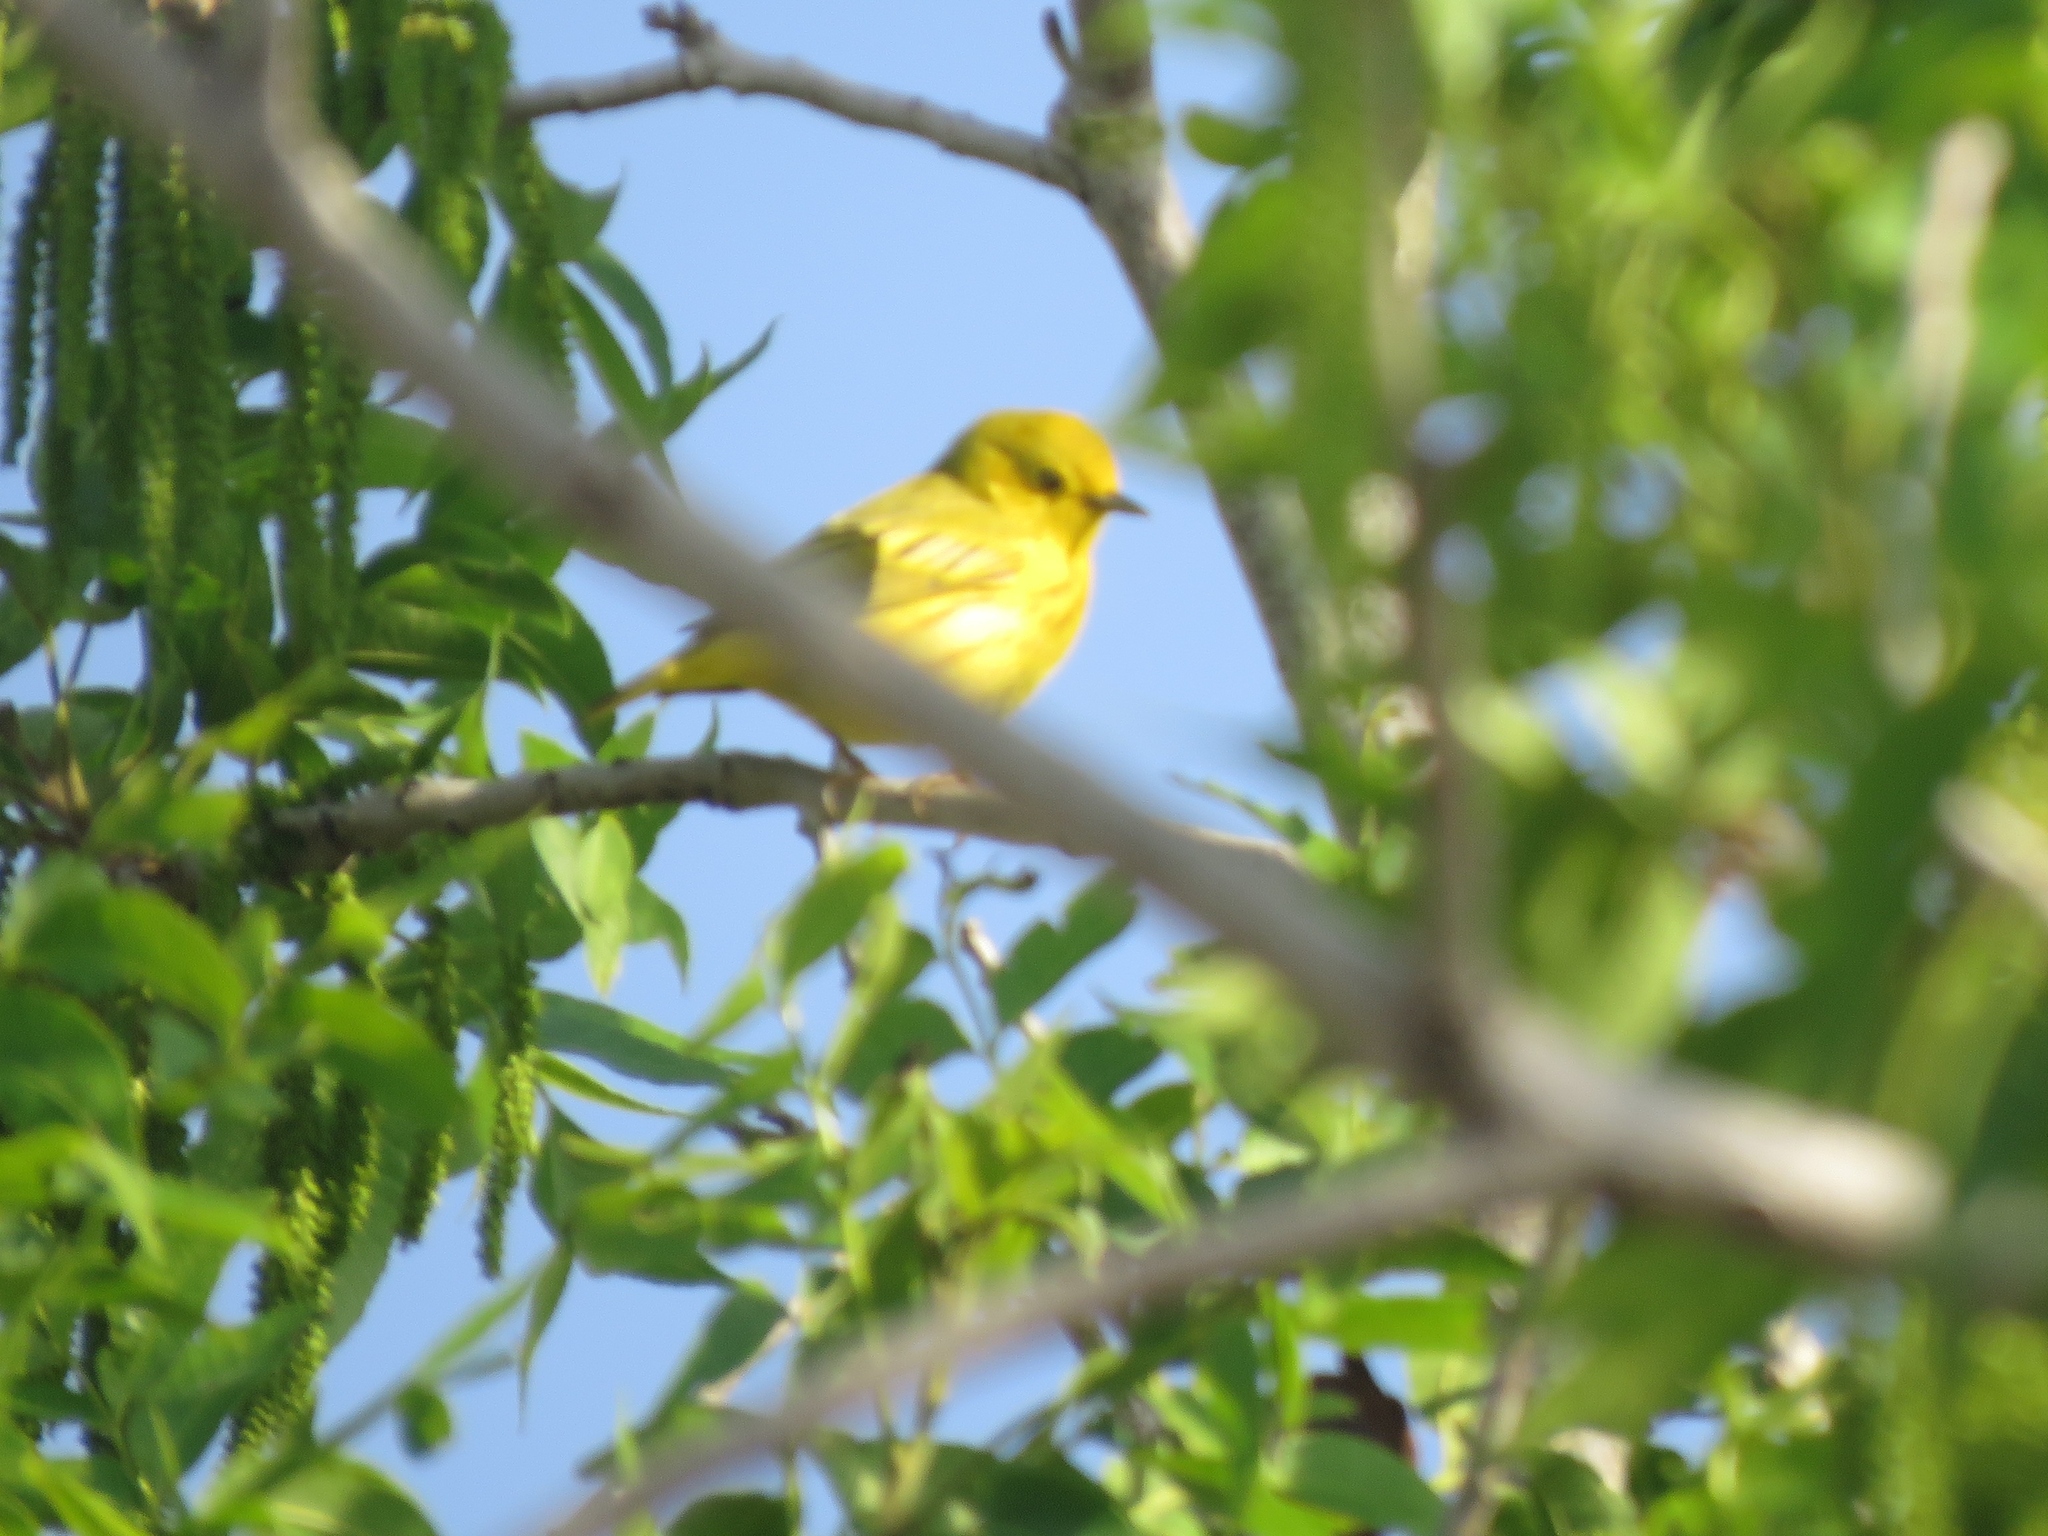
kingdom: Animalia
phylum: Chordata
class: Aves
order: Passeriformes
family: Parulidae
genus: Setophaga
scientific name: Setophaga petechia
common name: Yellow warbler
